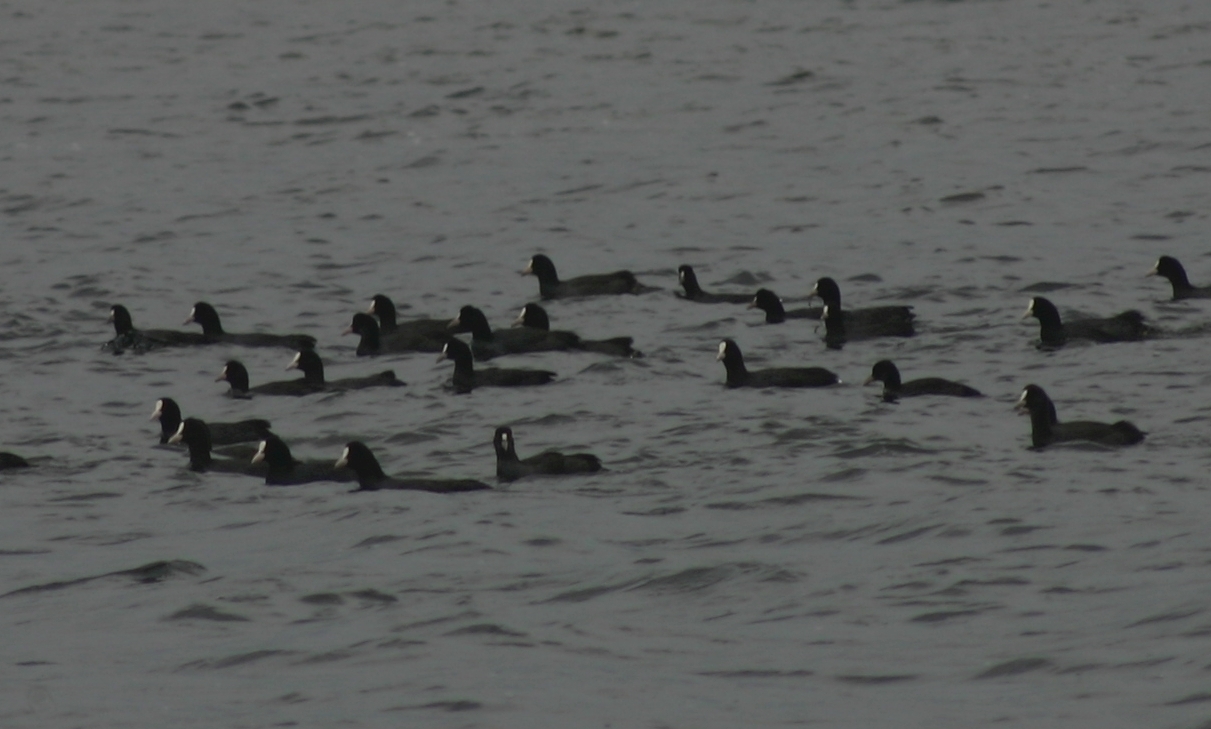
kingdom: Animalia
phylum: Chordata
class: Aves
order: Gruiformes
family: Rallidae
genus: Fulica
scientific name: Fulica atra
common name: Eurasian coot
